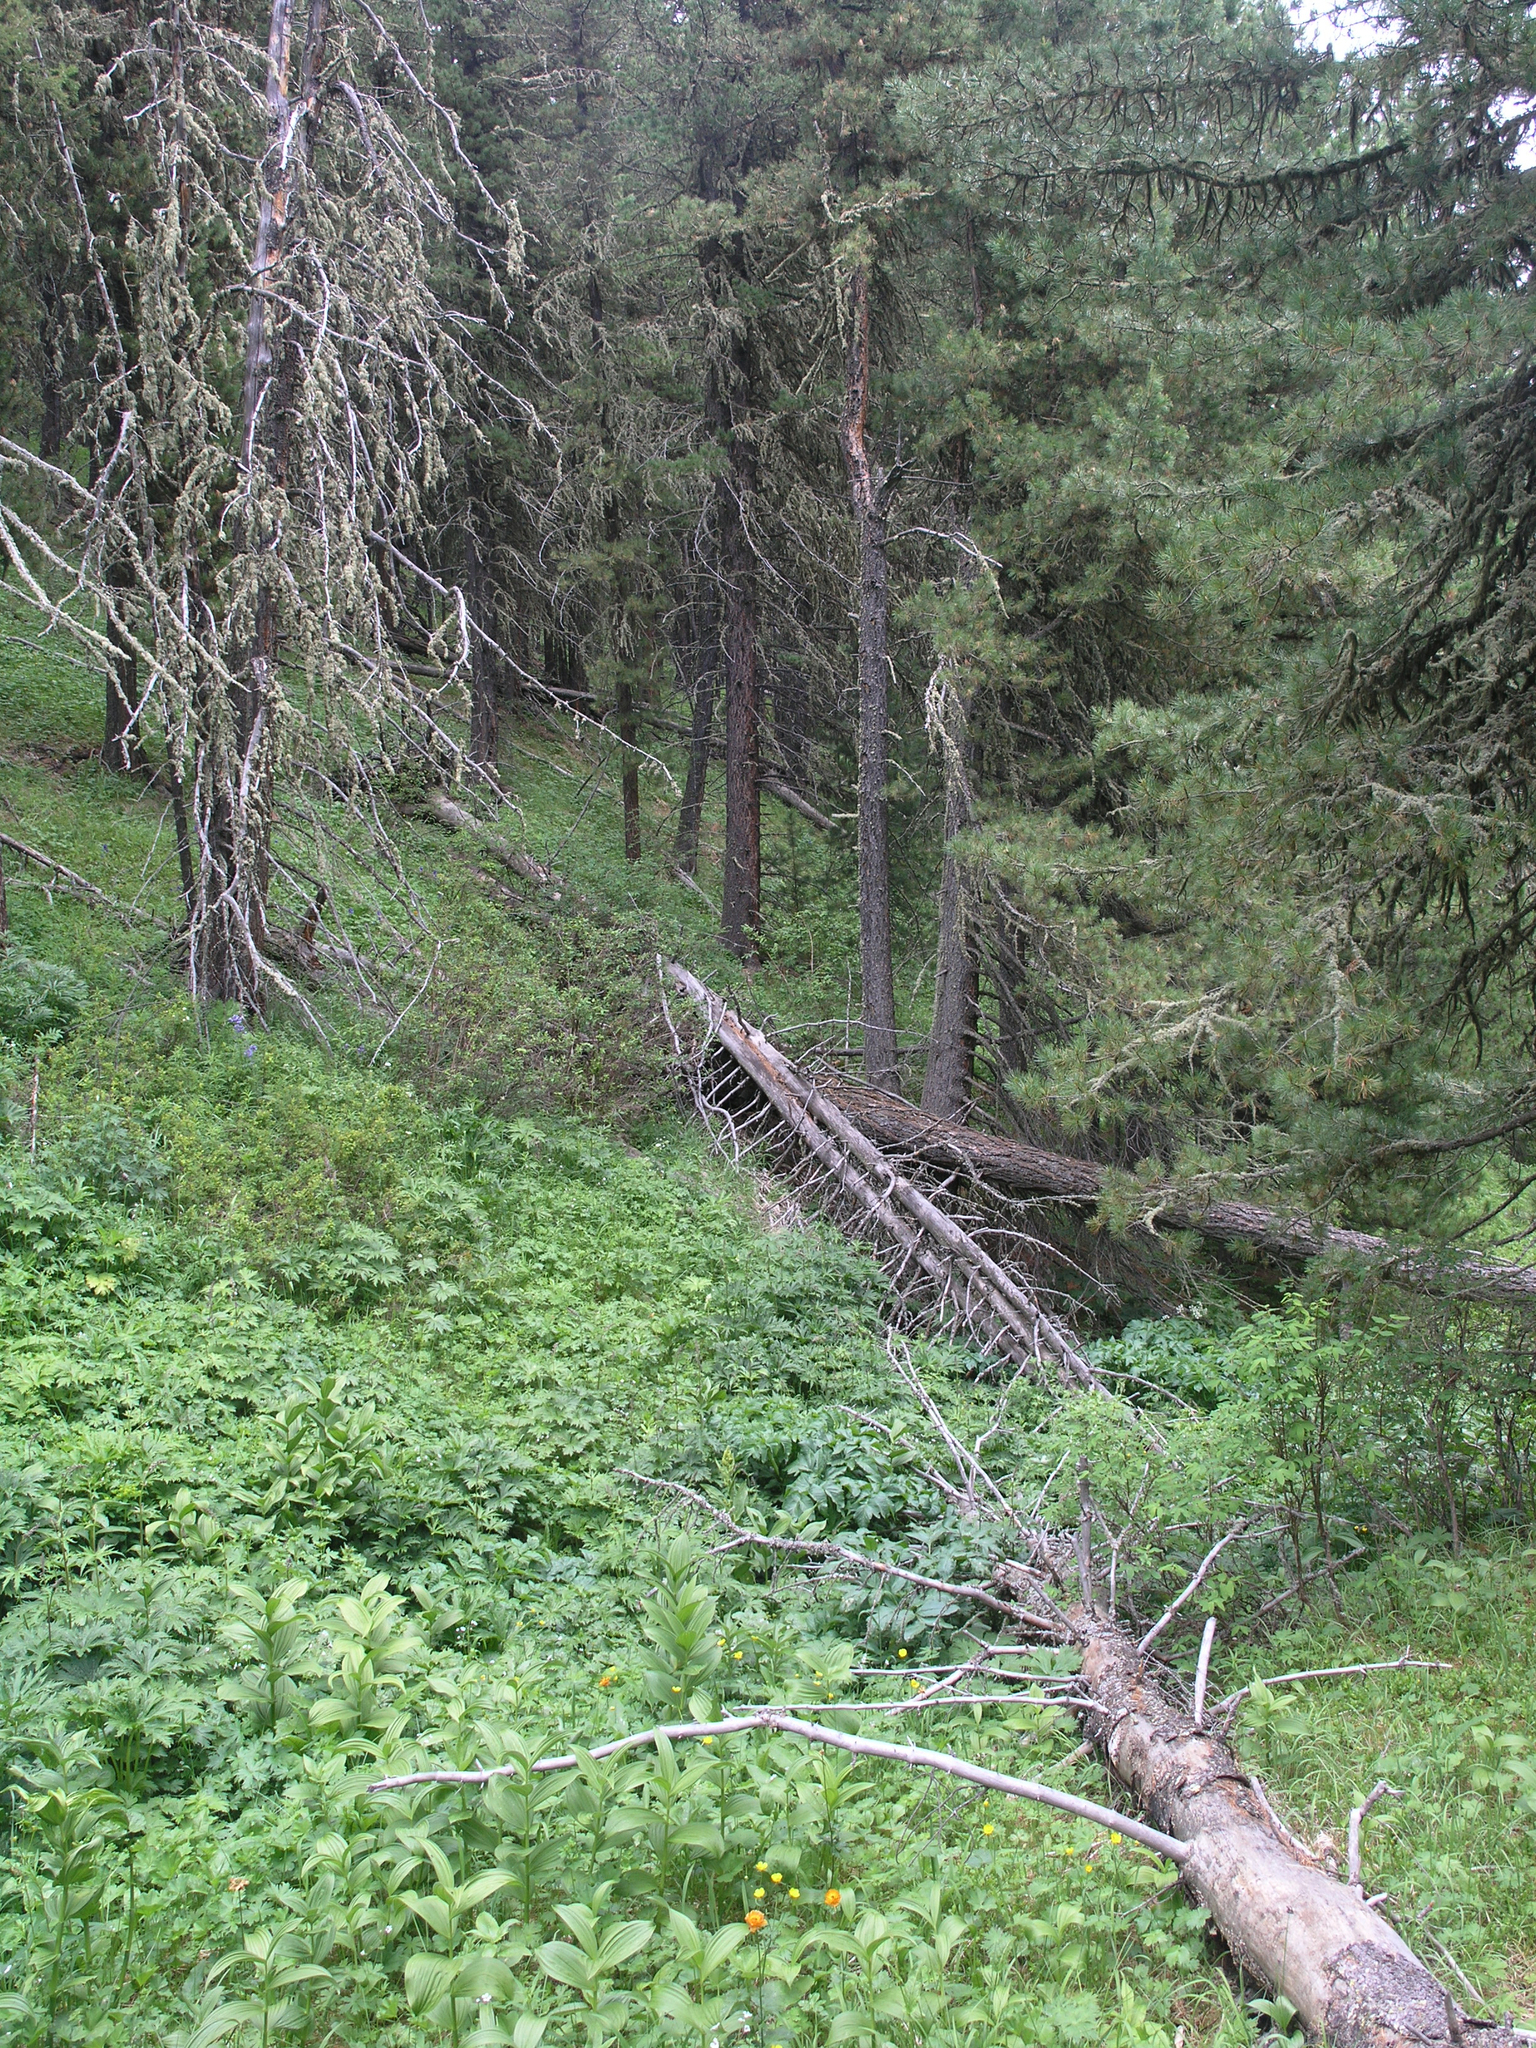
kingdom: Plantae
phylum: Tracheophyta
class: Pinopsida
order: Pinales
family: Pinaceae
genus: Picea
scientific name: Picea obovata
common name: Siberian spruce
